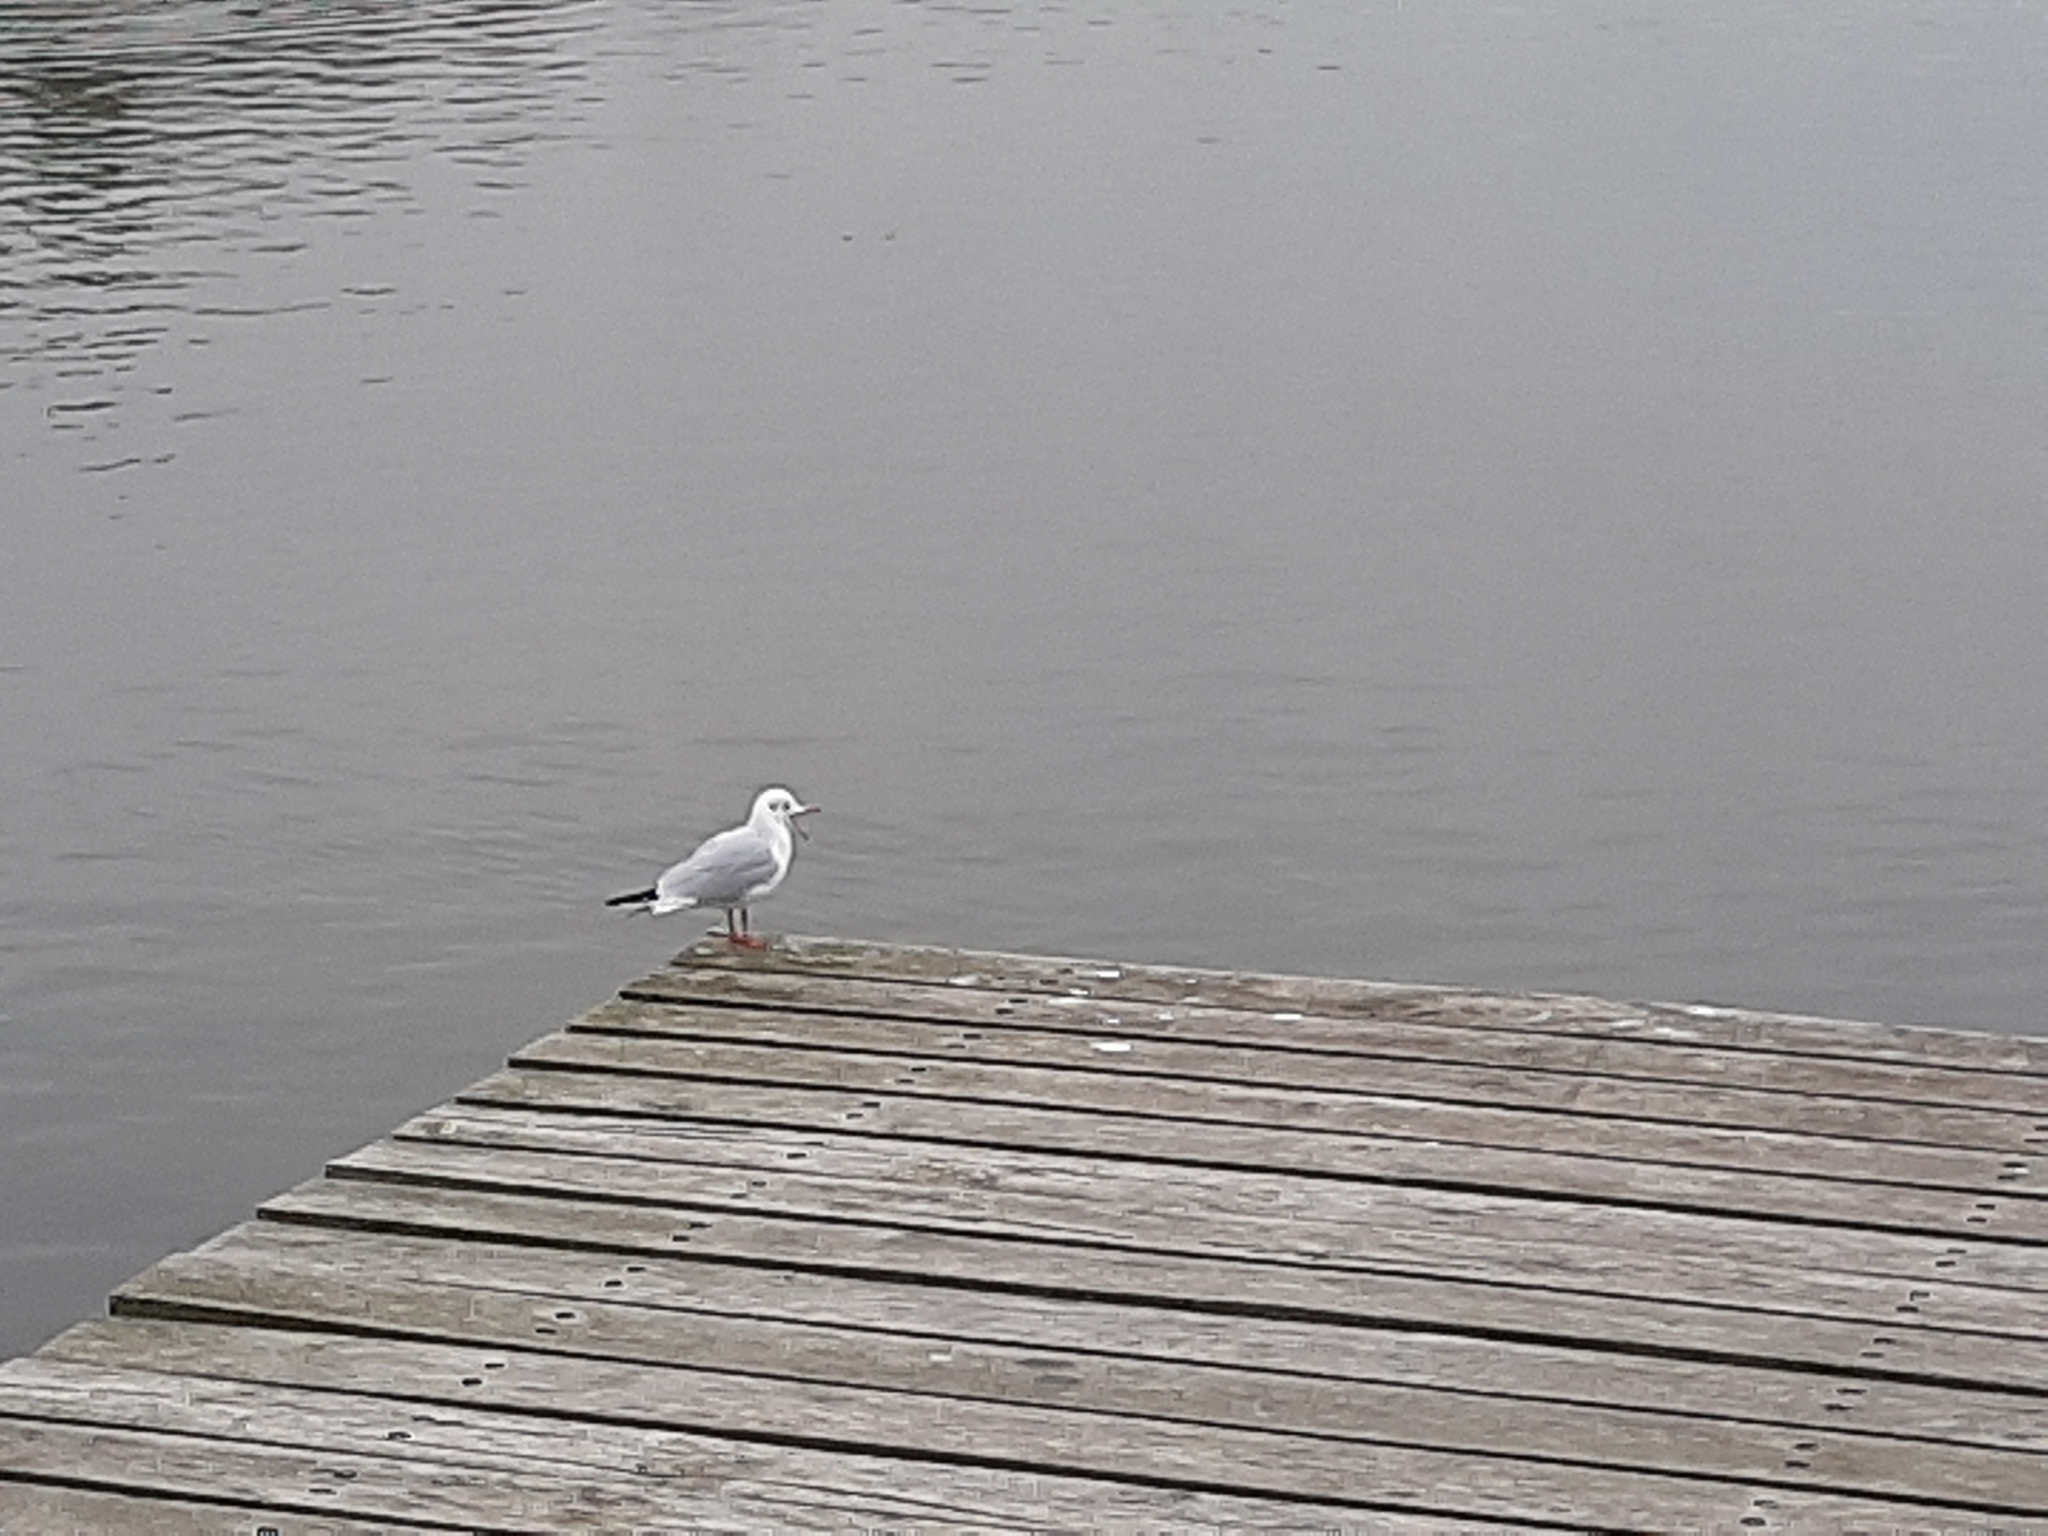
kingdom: Animalia
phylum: Chordata
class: Aves
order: Charadriiformes
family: Laridae
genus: Chroicocephalus
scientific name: Chroicocephalus ridibundus
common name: Black-headed gull
